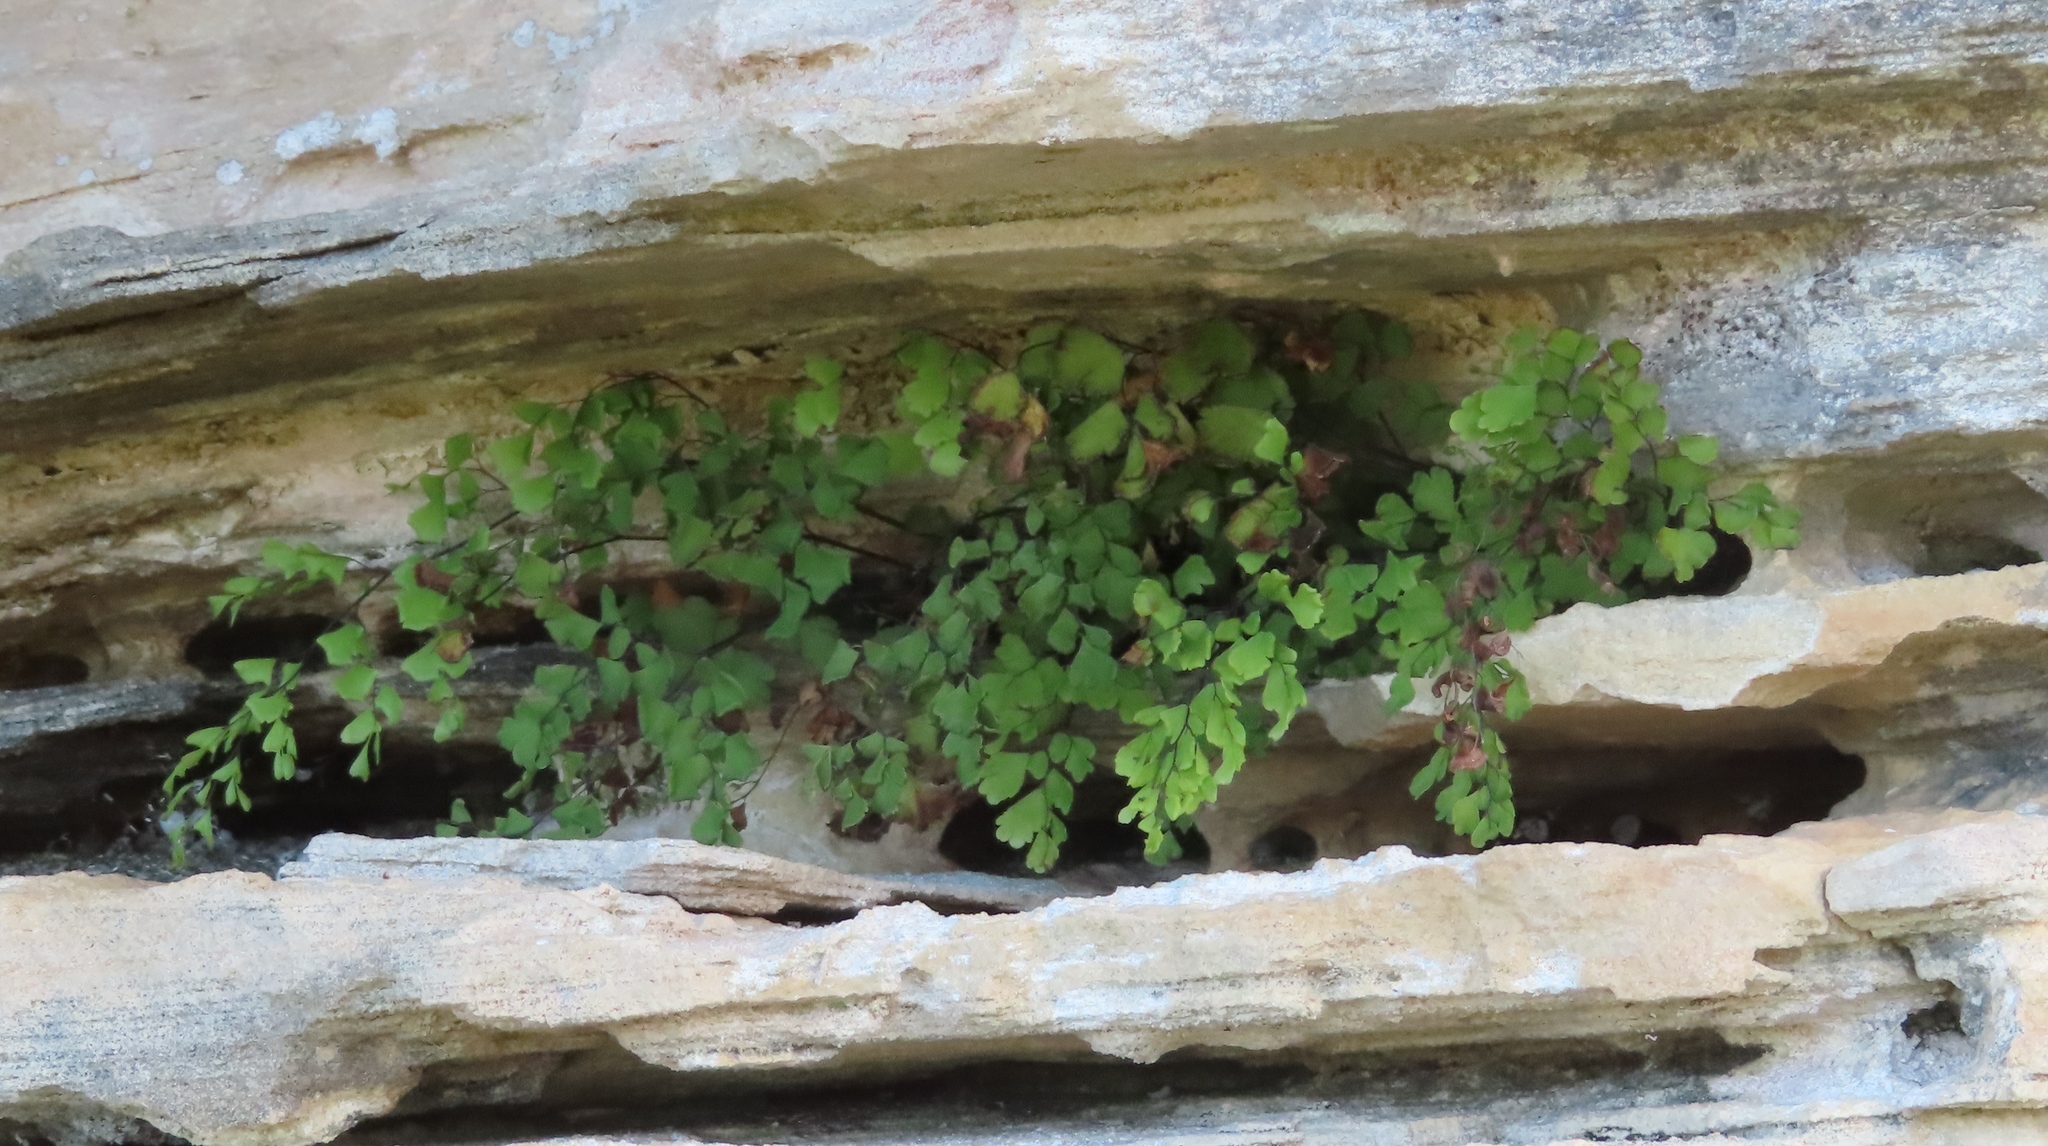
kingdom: Plantae
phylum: Tracheophyta
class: Polypodiopsida
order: Polypodiales
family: Pteridaceae
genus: Adiantum
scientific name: Adiantum capillus-veneris
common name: Maidenhair fern
